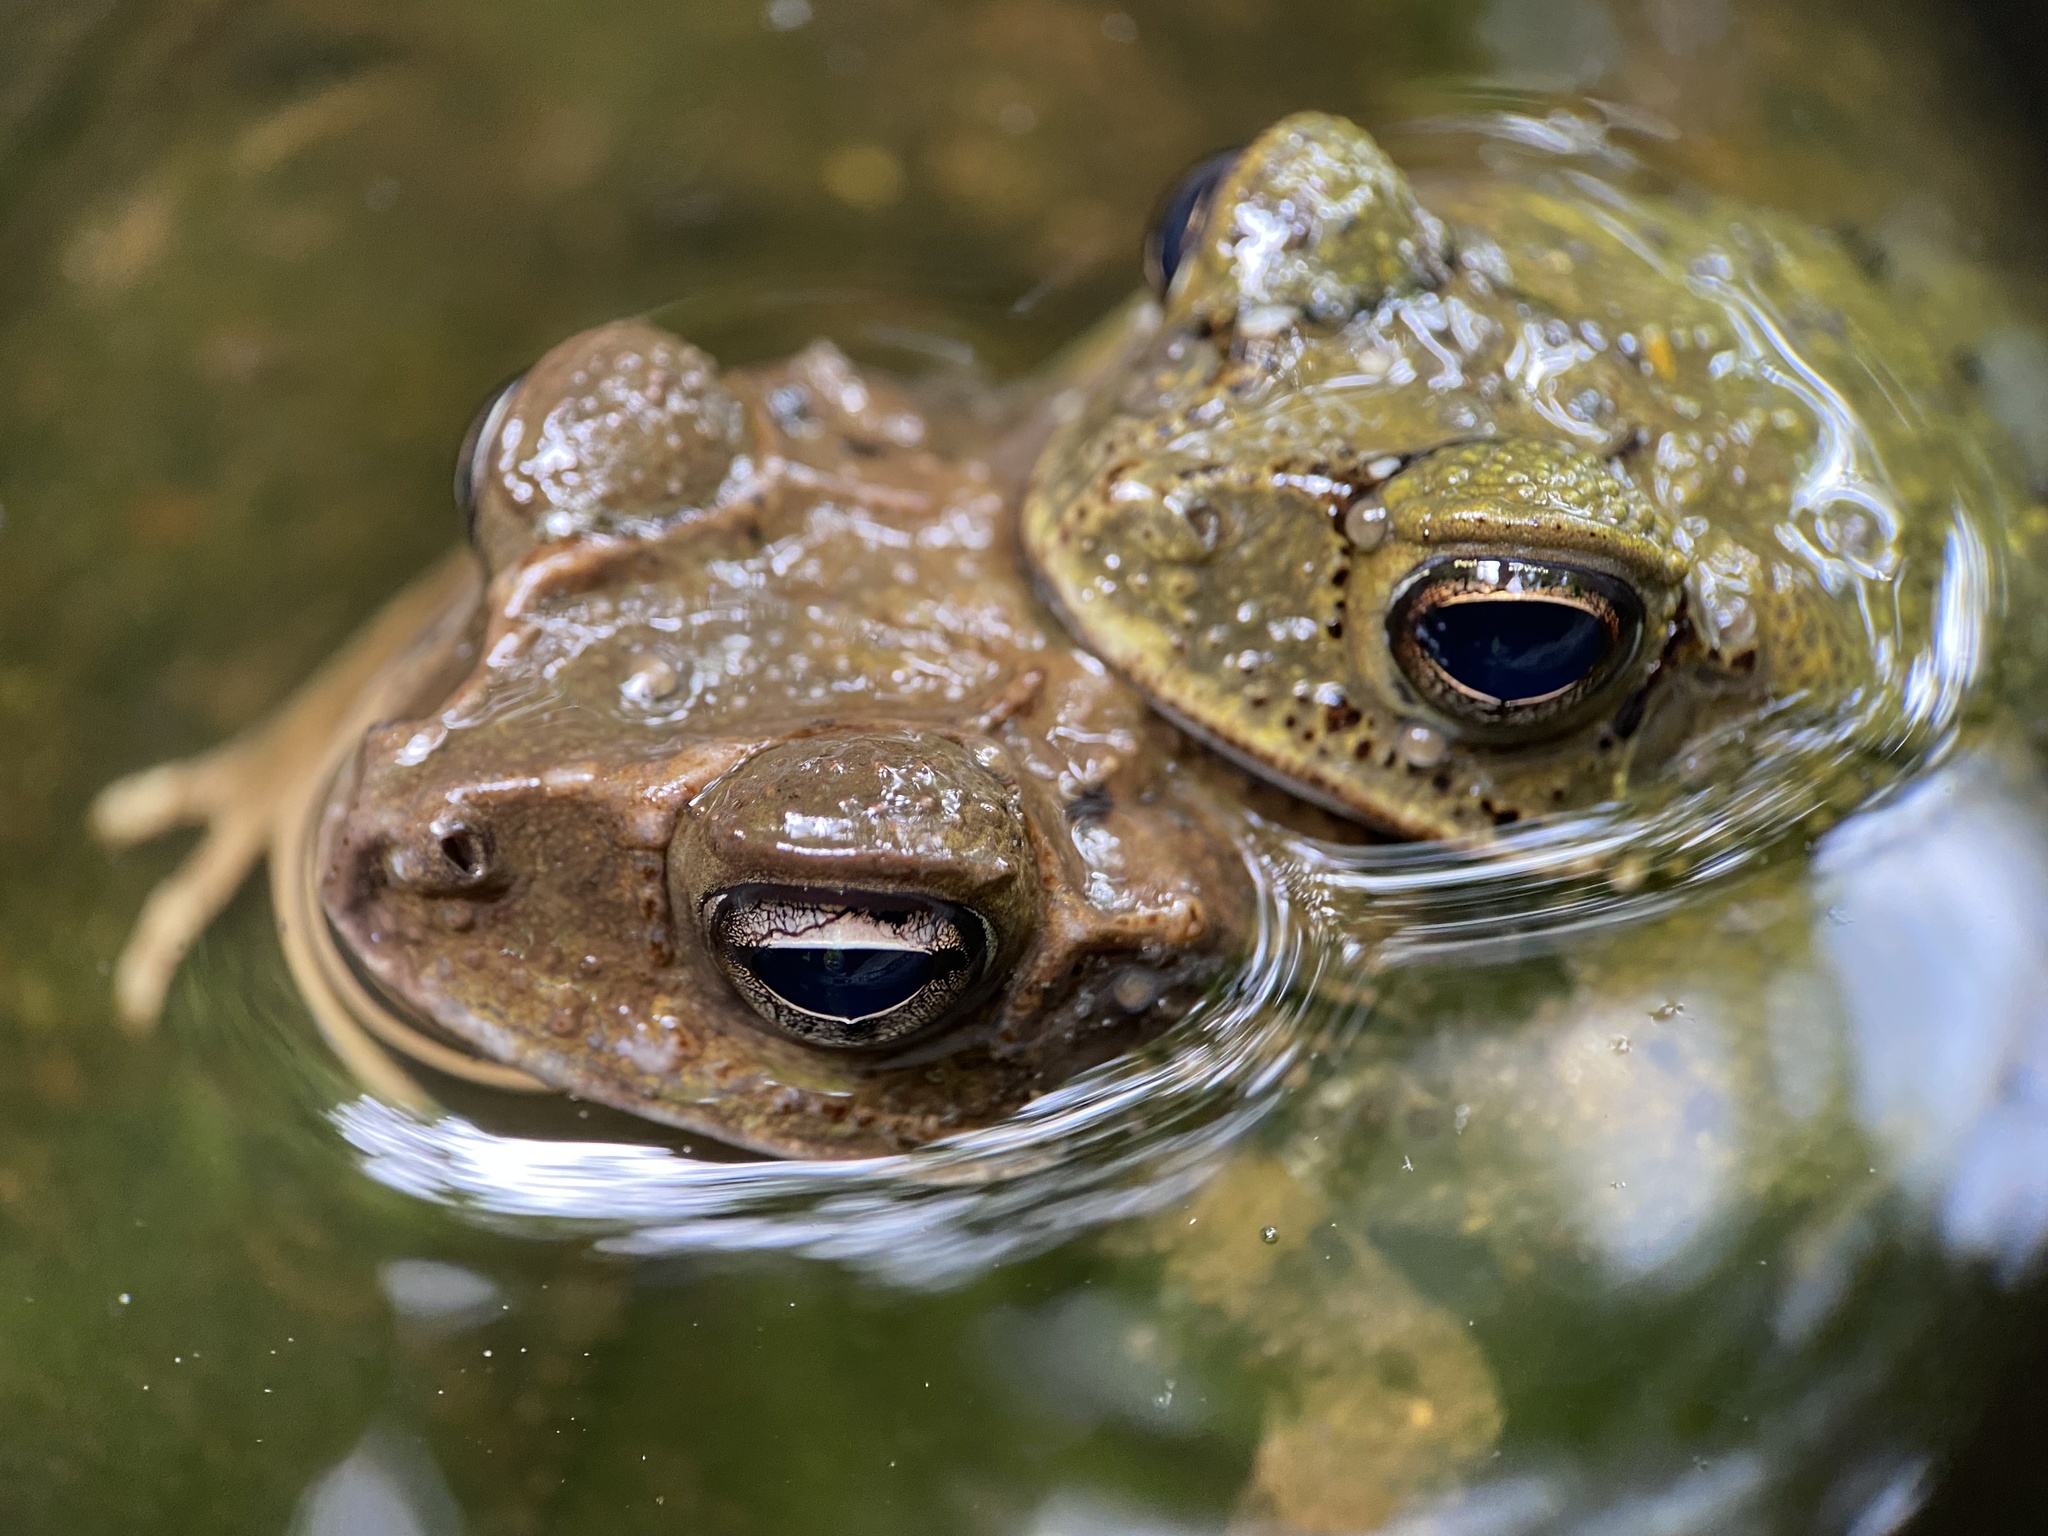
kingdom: Animalia
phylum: Chordata
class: Amphibia
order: Anura
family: Bufonidae
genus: Incilius
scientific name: Incilius luetkenii
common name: Yellow toad
